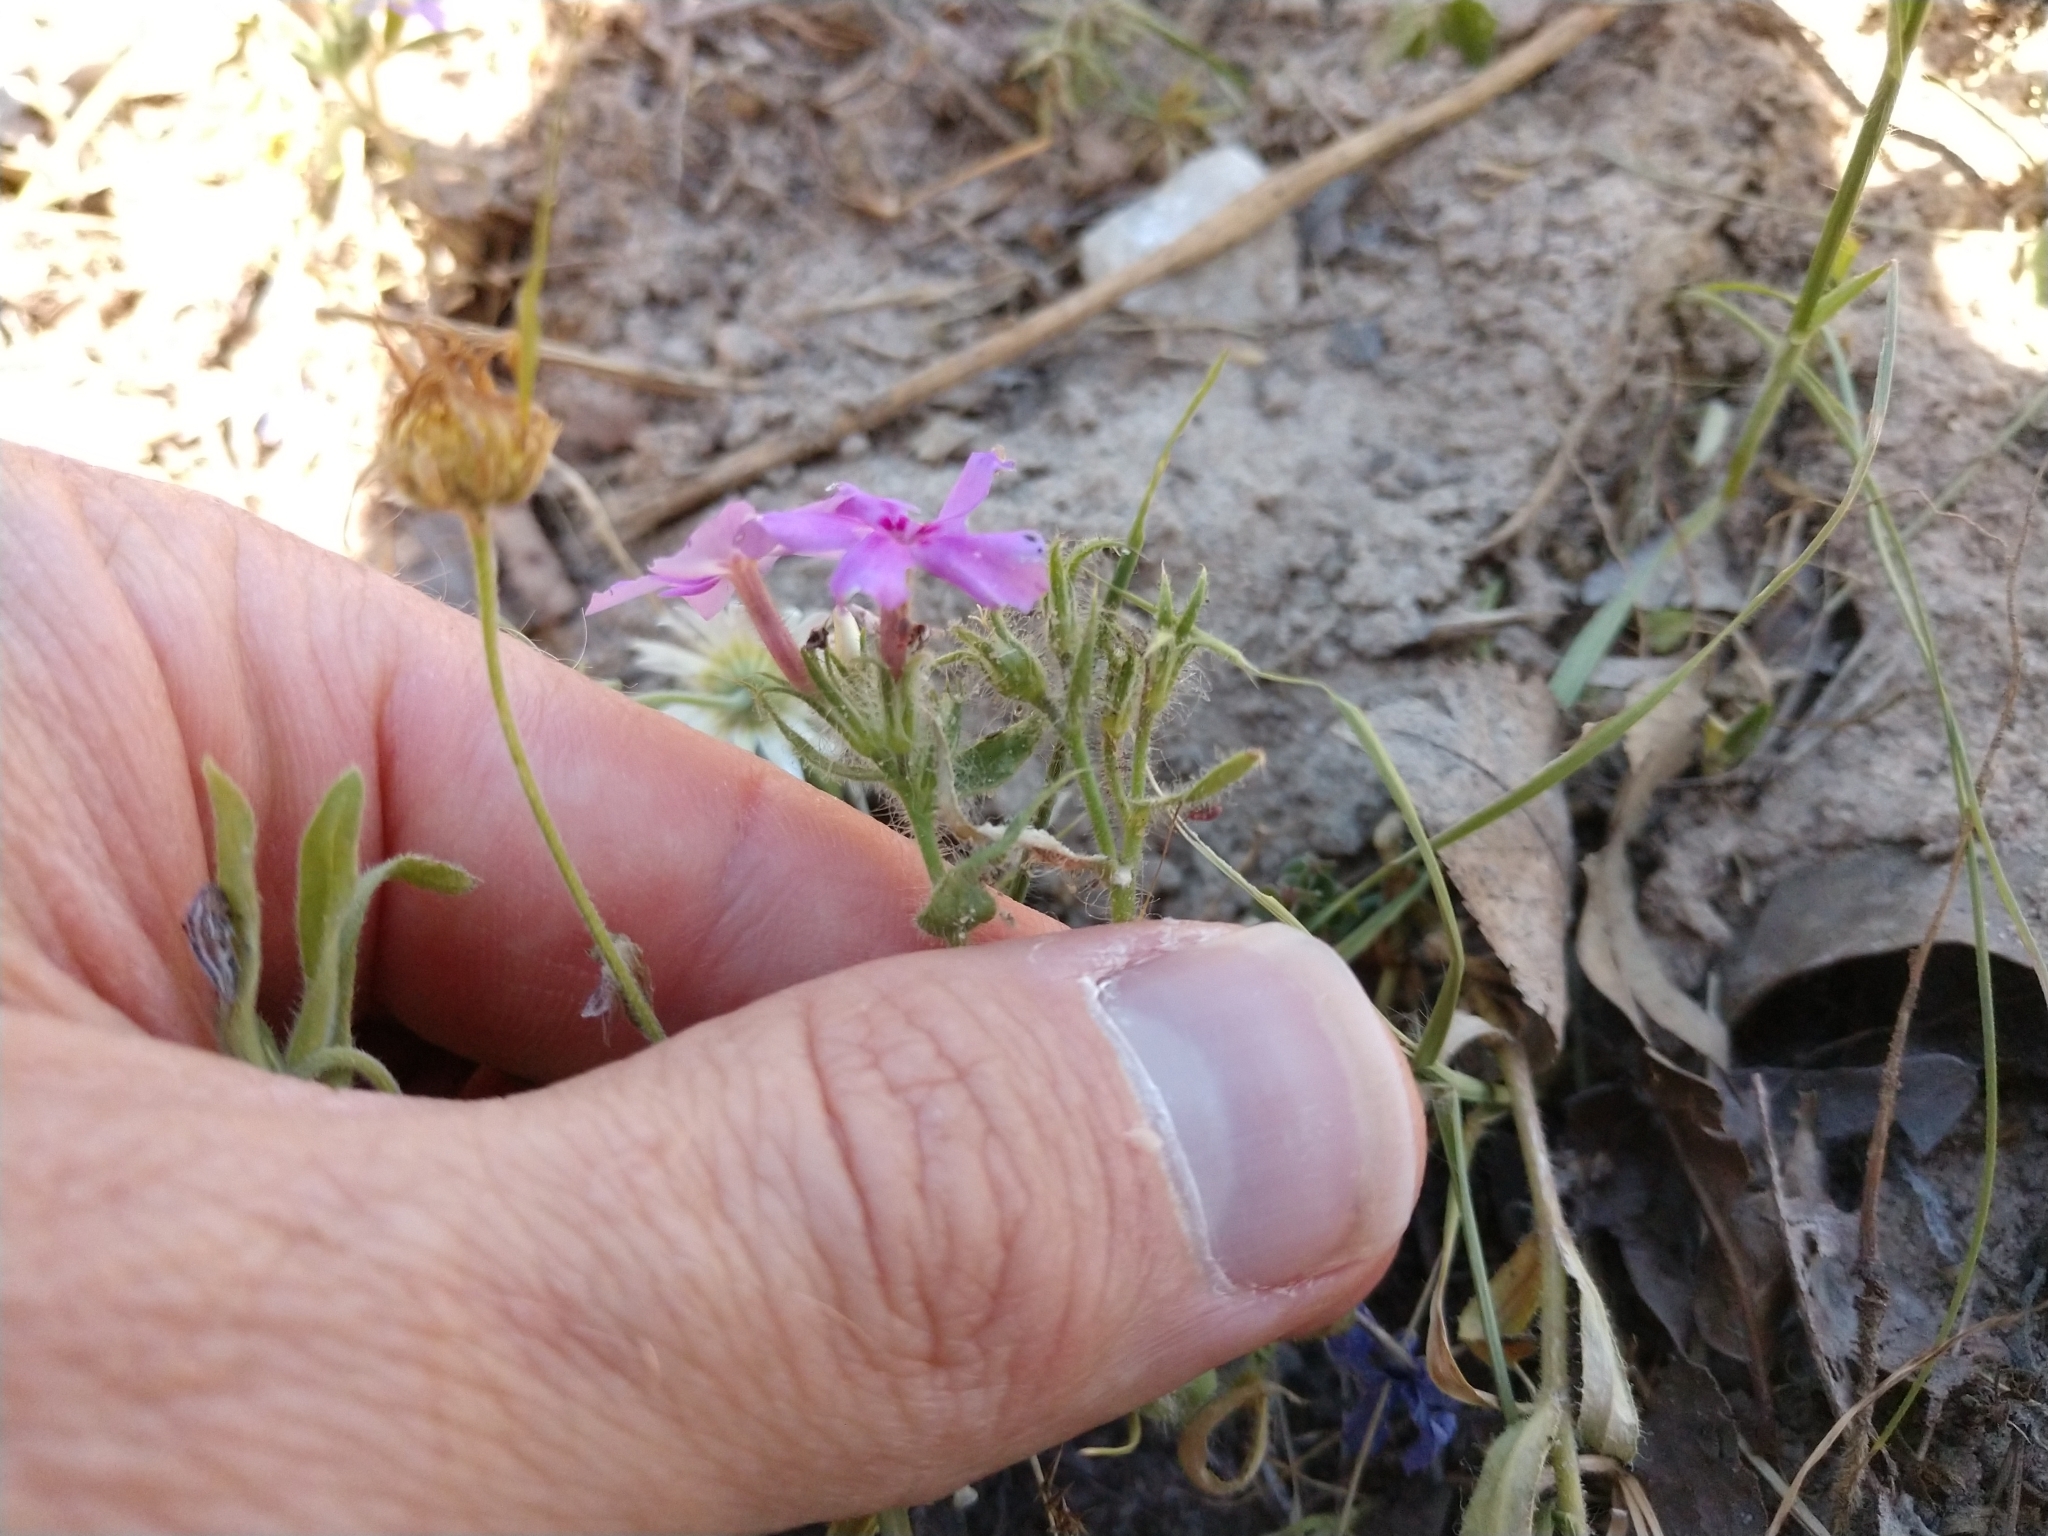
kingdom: Plantae
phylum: Tracheophyta
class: Magnoliopsida
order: Ericales
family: Polemoniaceae
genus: Phlox
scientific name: Phlox drummondii
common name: Drummond's phlox
